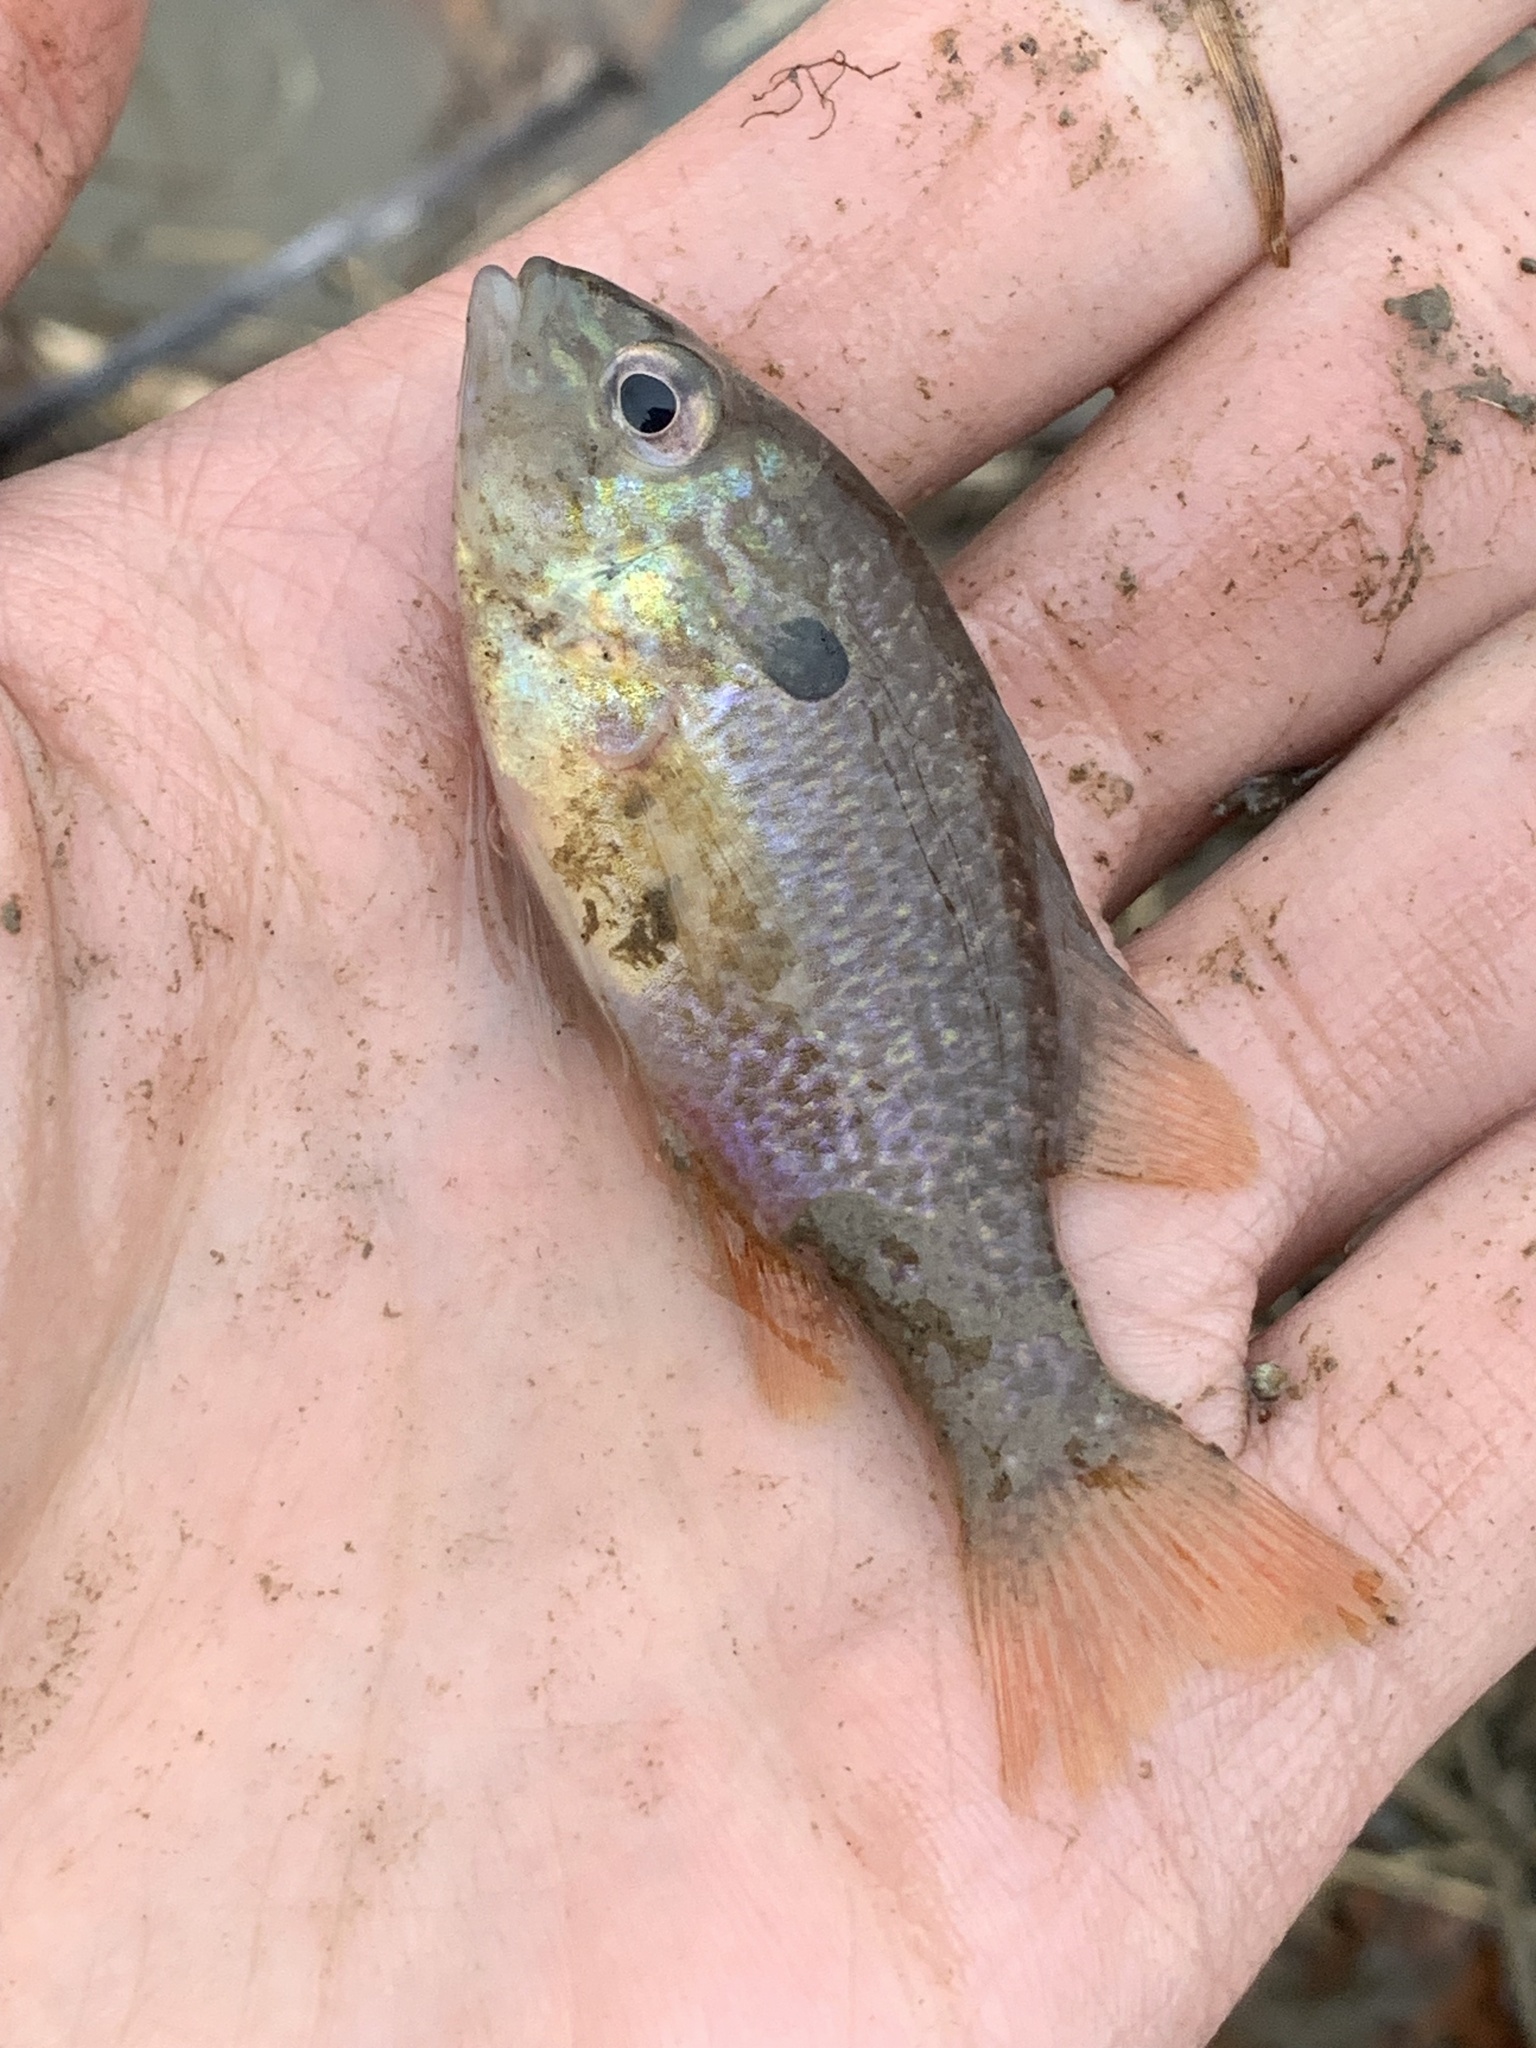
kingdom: Animalia
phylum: Chordata
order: Perciformes
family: Centrarchidae
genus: Lepomis
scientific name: Lepomis
